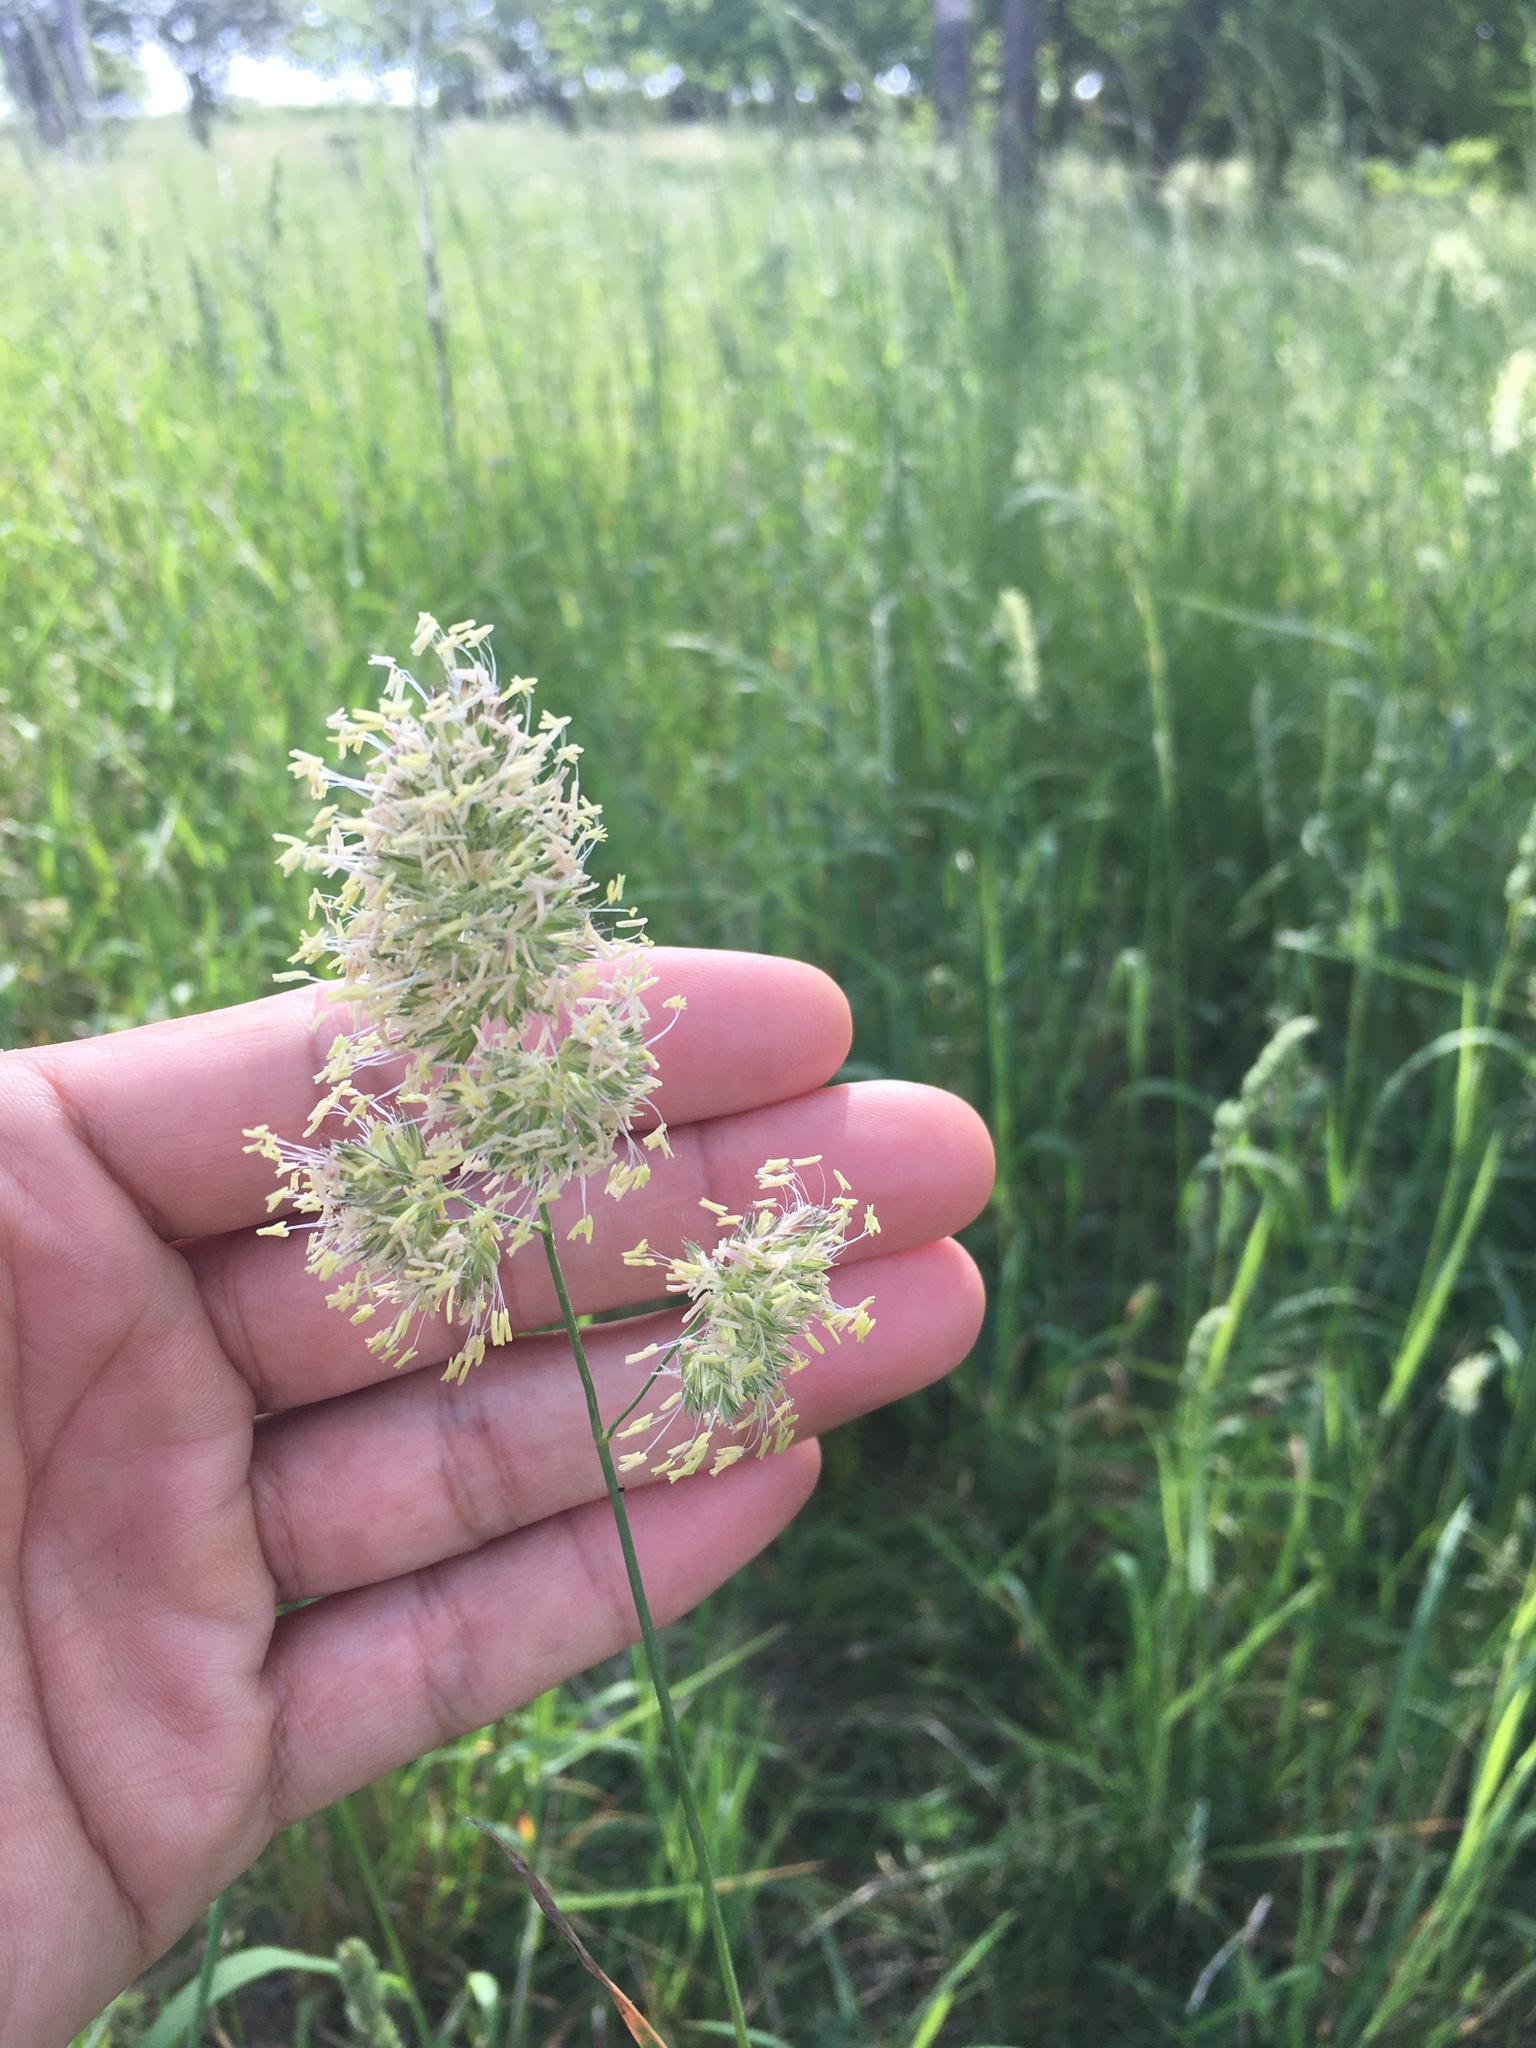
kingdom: Plantae
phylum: Tracheophyta
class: Liliopsida
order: Poales
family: Poaceae
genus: Dactylis
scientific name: Dactylis glomerata
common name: Orchardgrass
